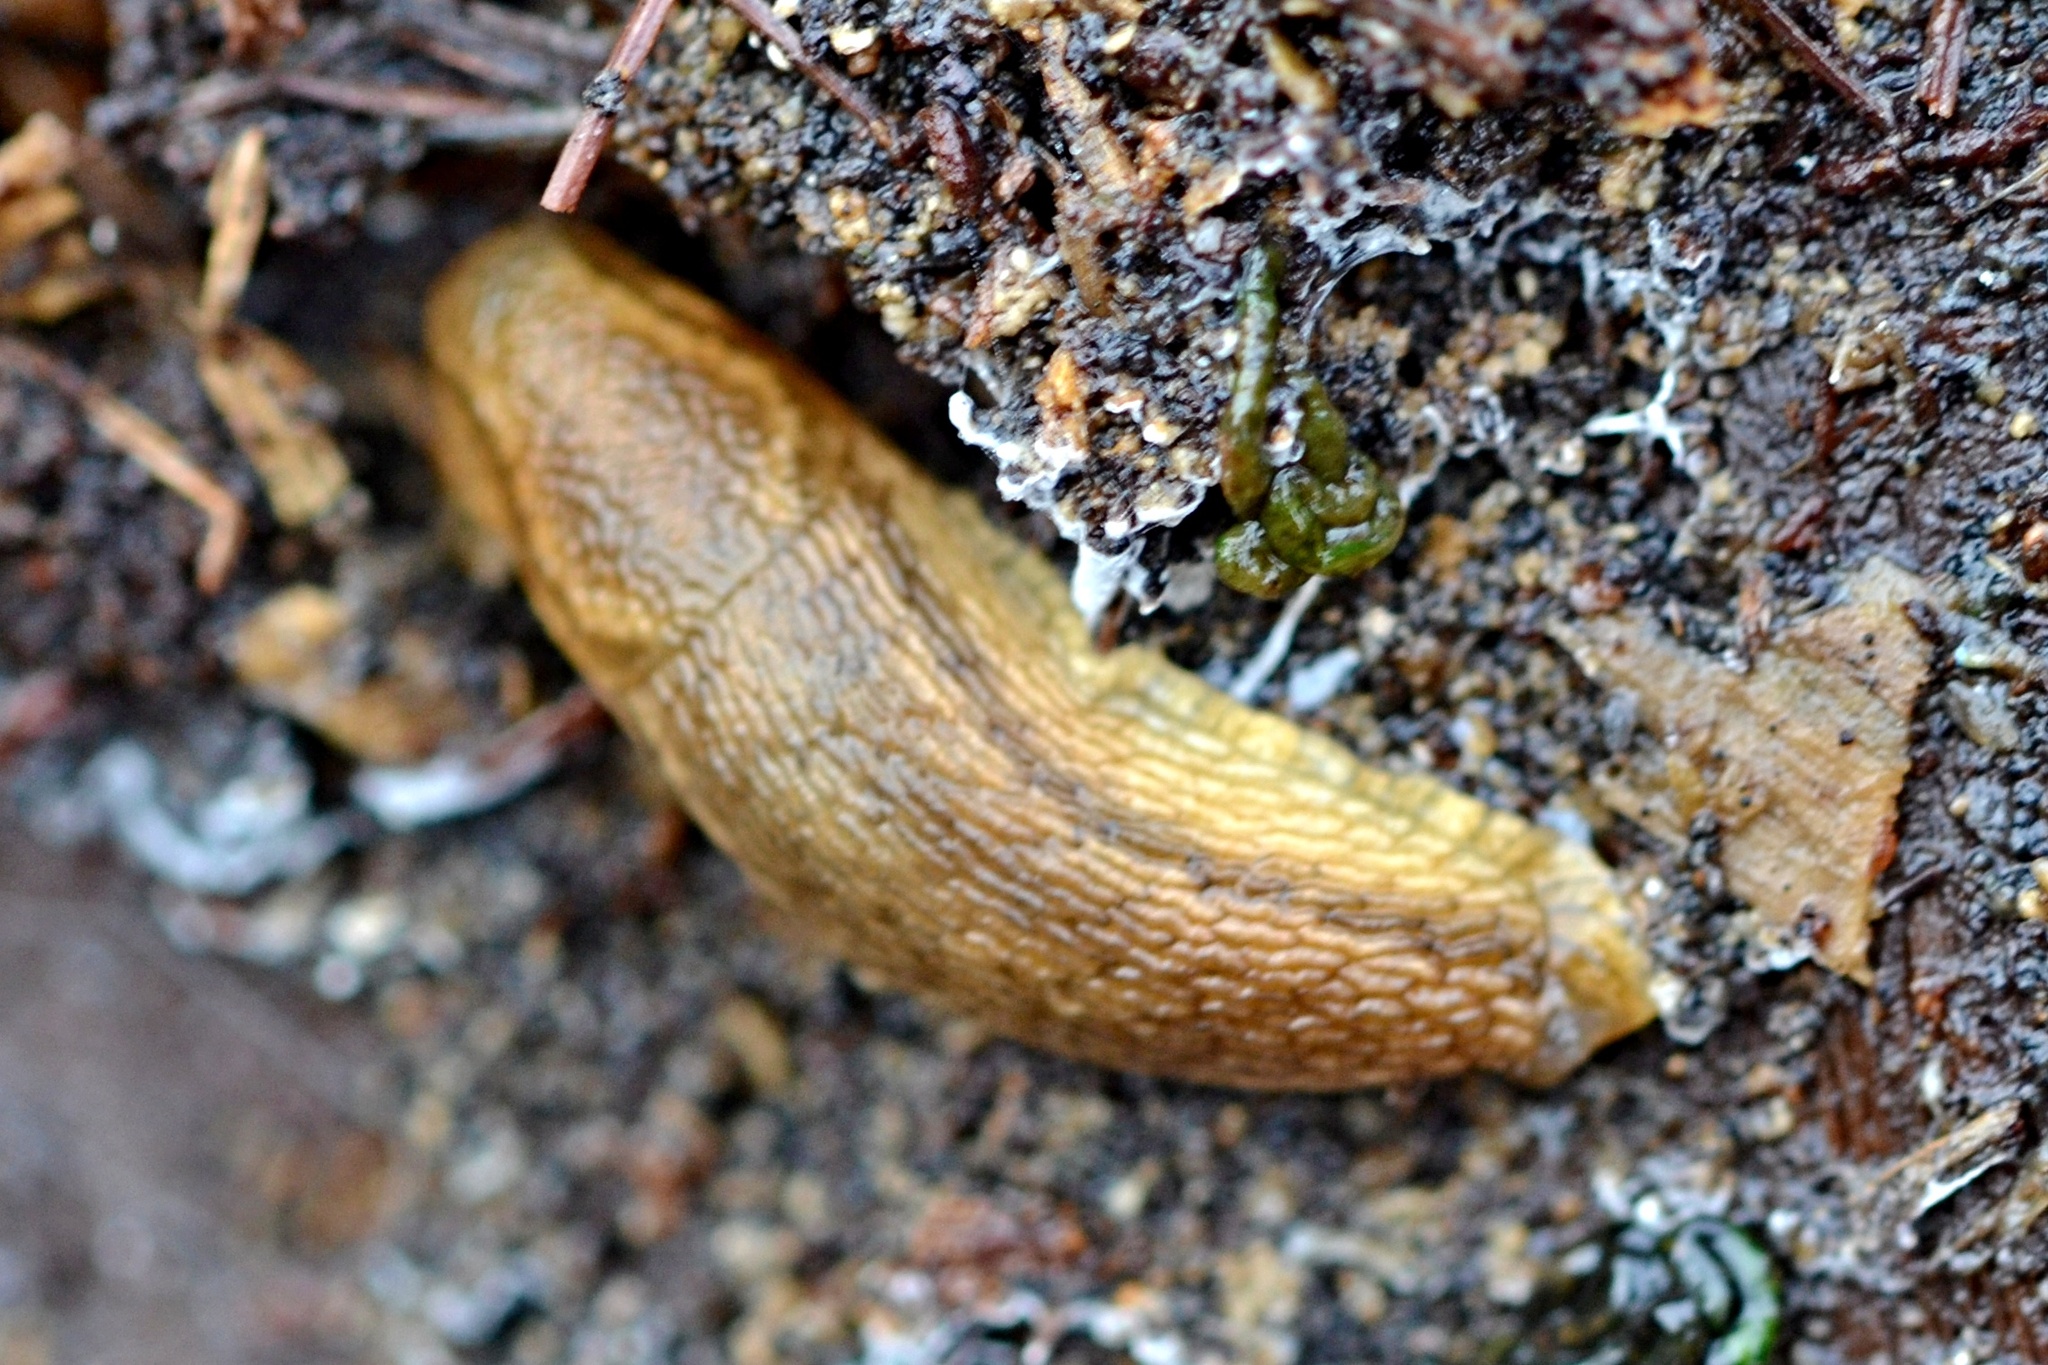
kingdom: Animalia
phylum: Mollusca
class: Gastropoda
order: Stylommatophora
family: Arionidae
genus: Arion
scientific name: Arion fuscus
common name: Northern dusky slug
